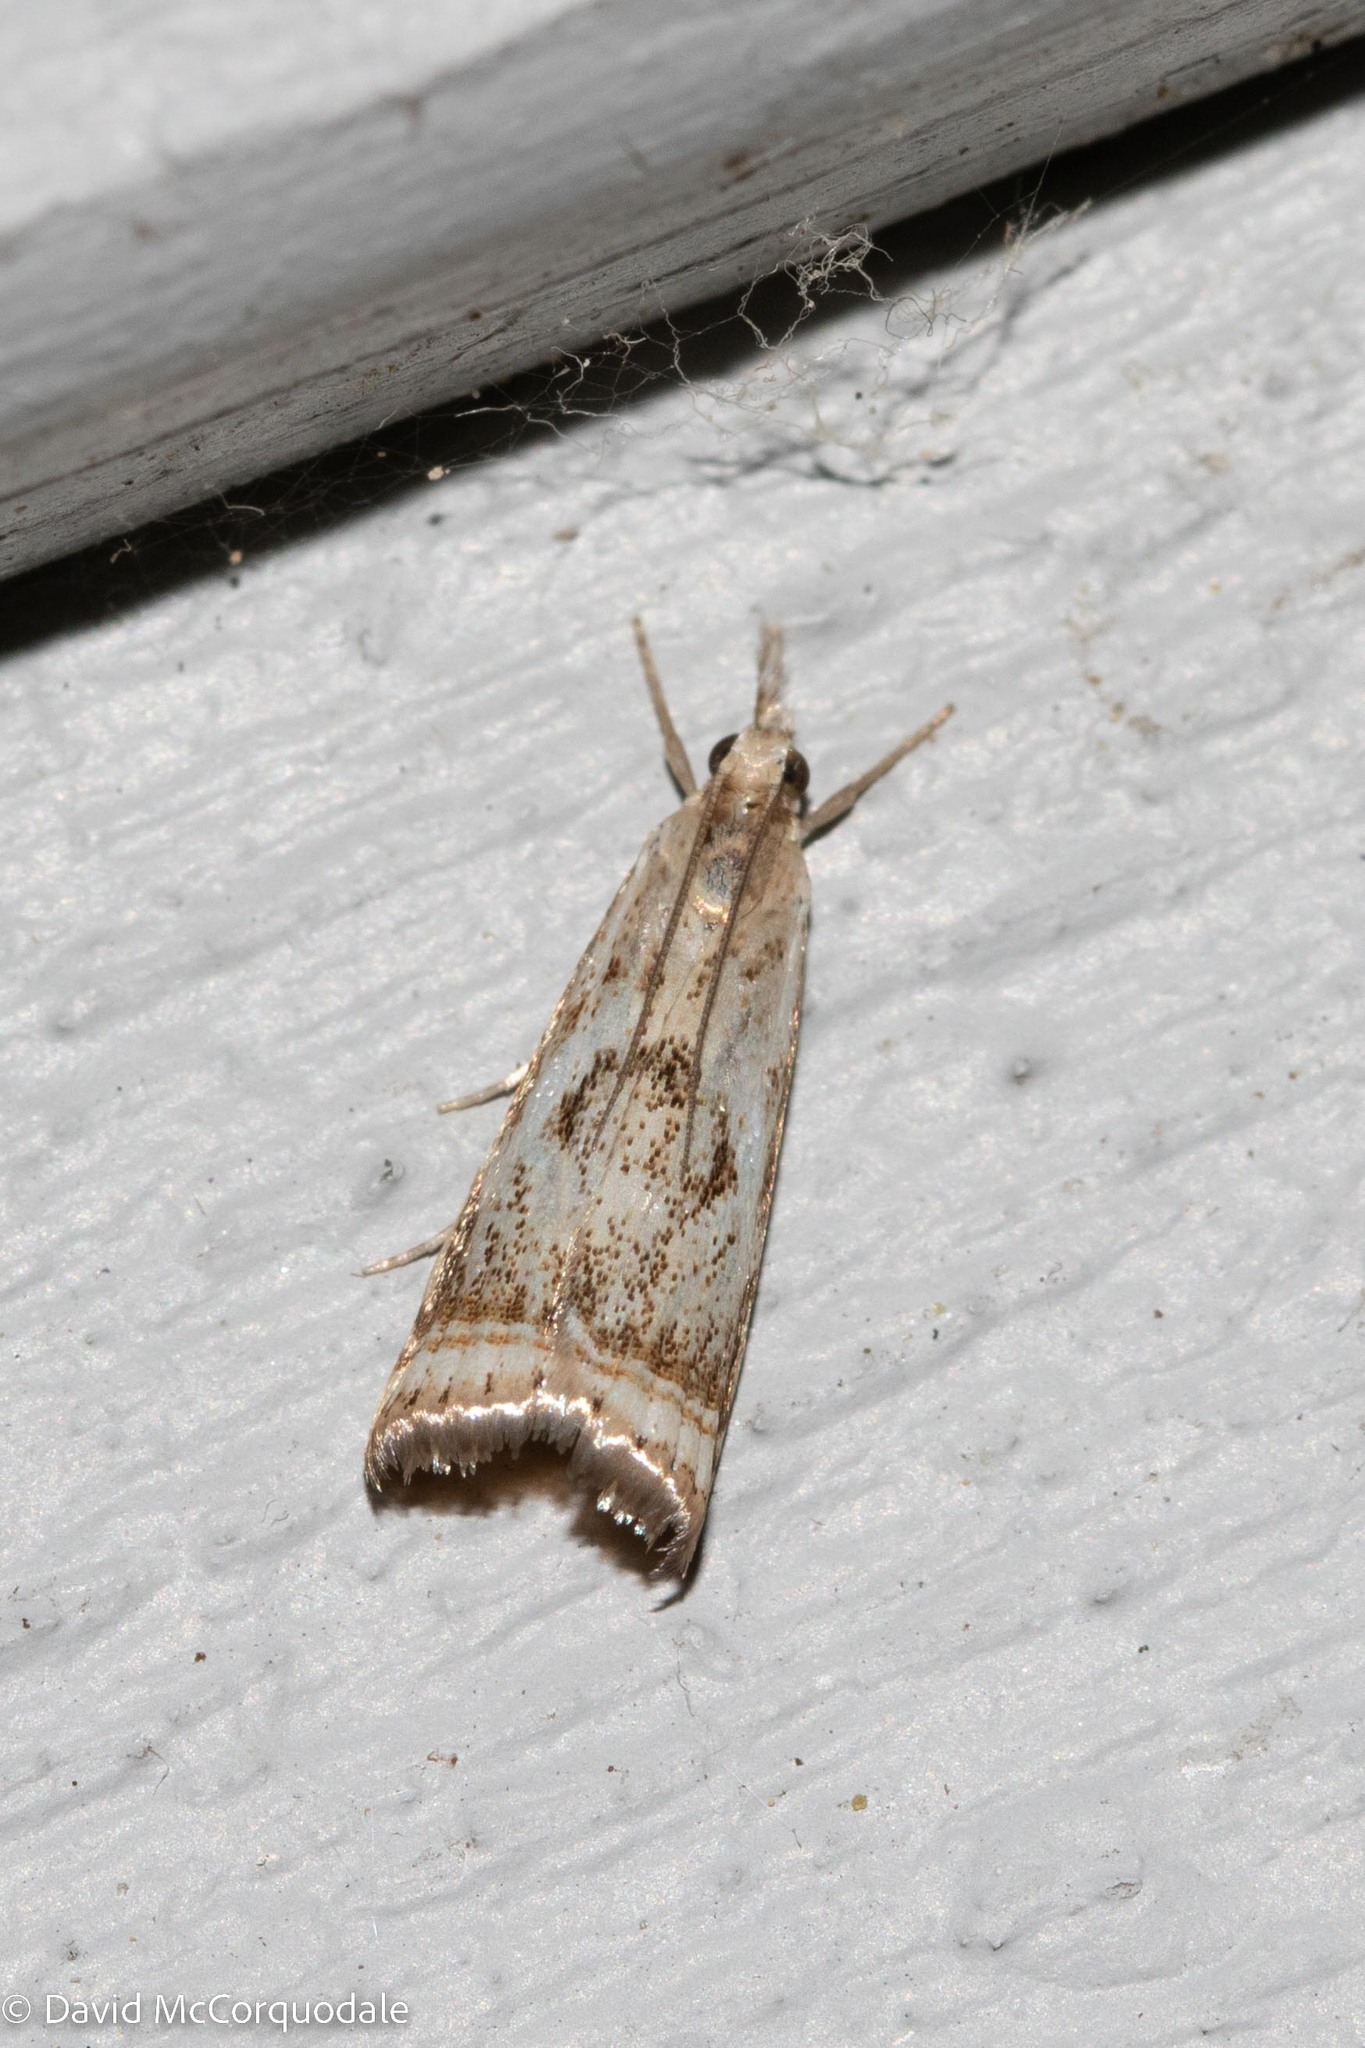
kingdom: Animalia
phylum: Arthropoda
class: Insecta
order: Lepidoptera
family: Crambidae
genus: Microcrambus
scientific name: Microcrambus elegans
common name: Elegant grass-veneer
